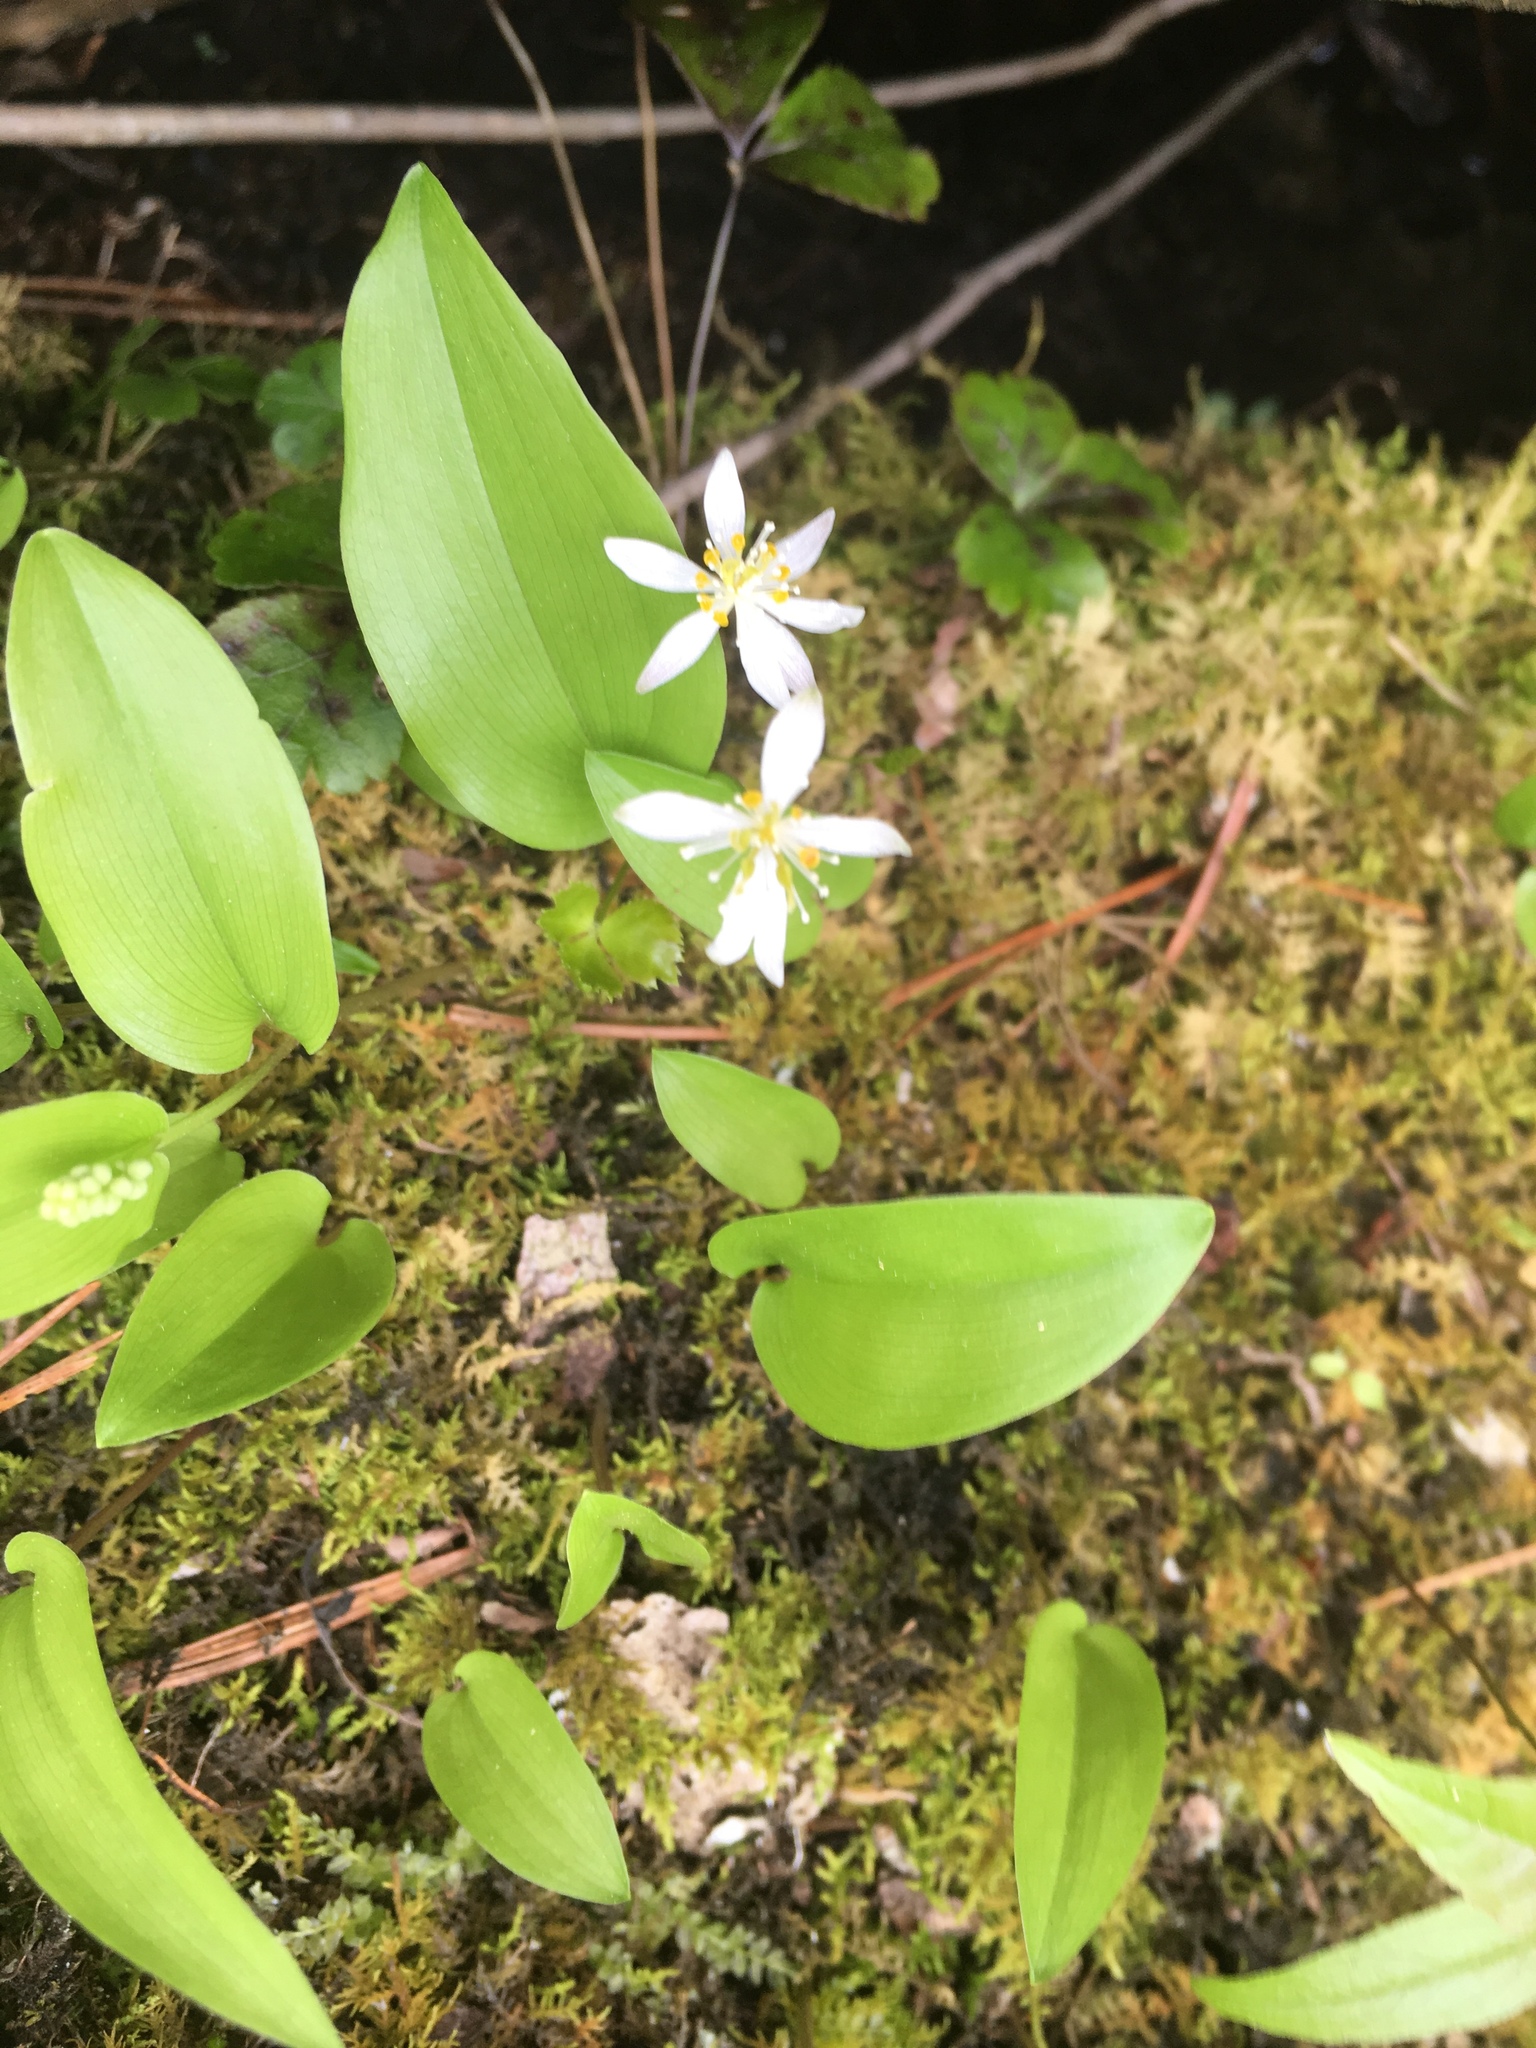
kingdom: Plantae
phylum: Tracheophyta
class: Magnoliopsida
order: Ranunculales
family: Ranunculaceae
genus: Coptis
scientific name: Coptis trifolia
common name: Canker-root
